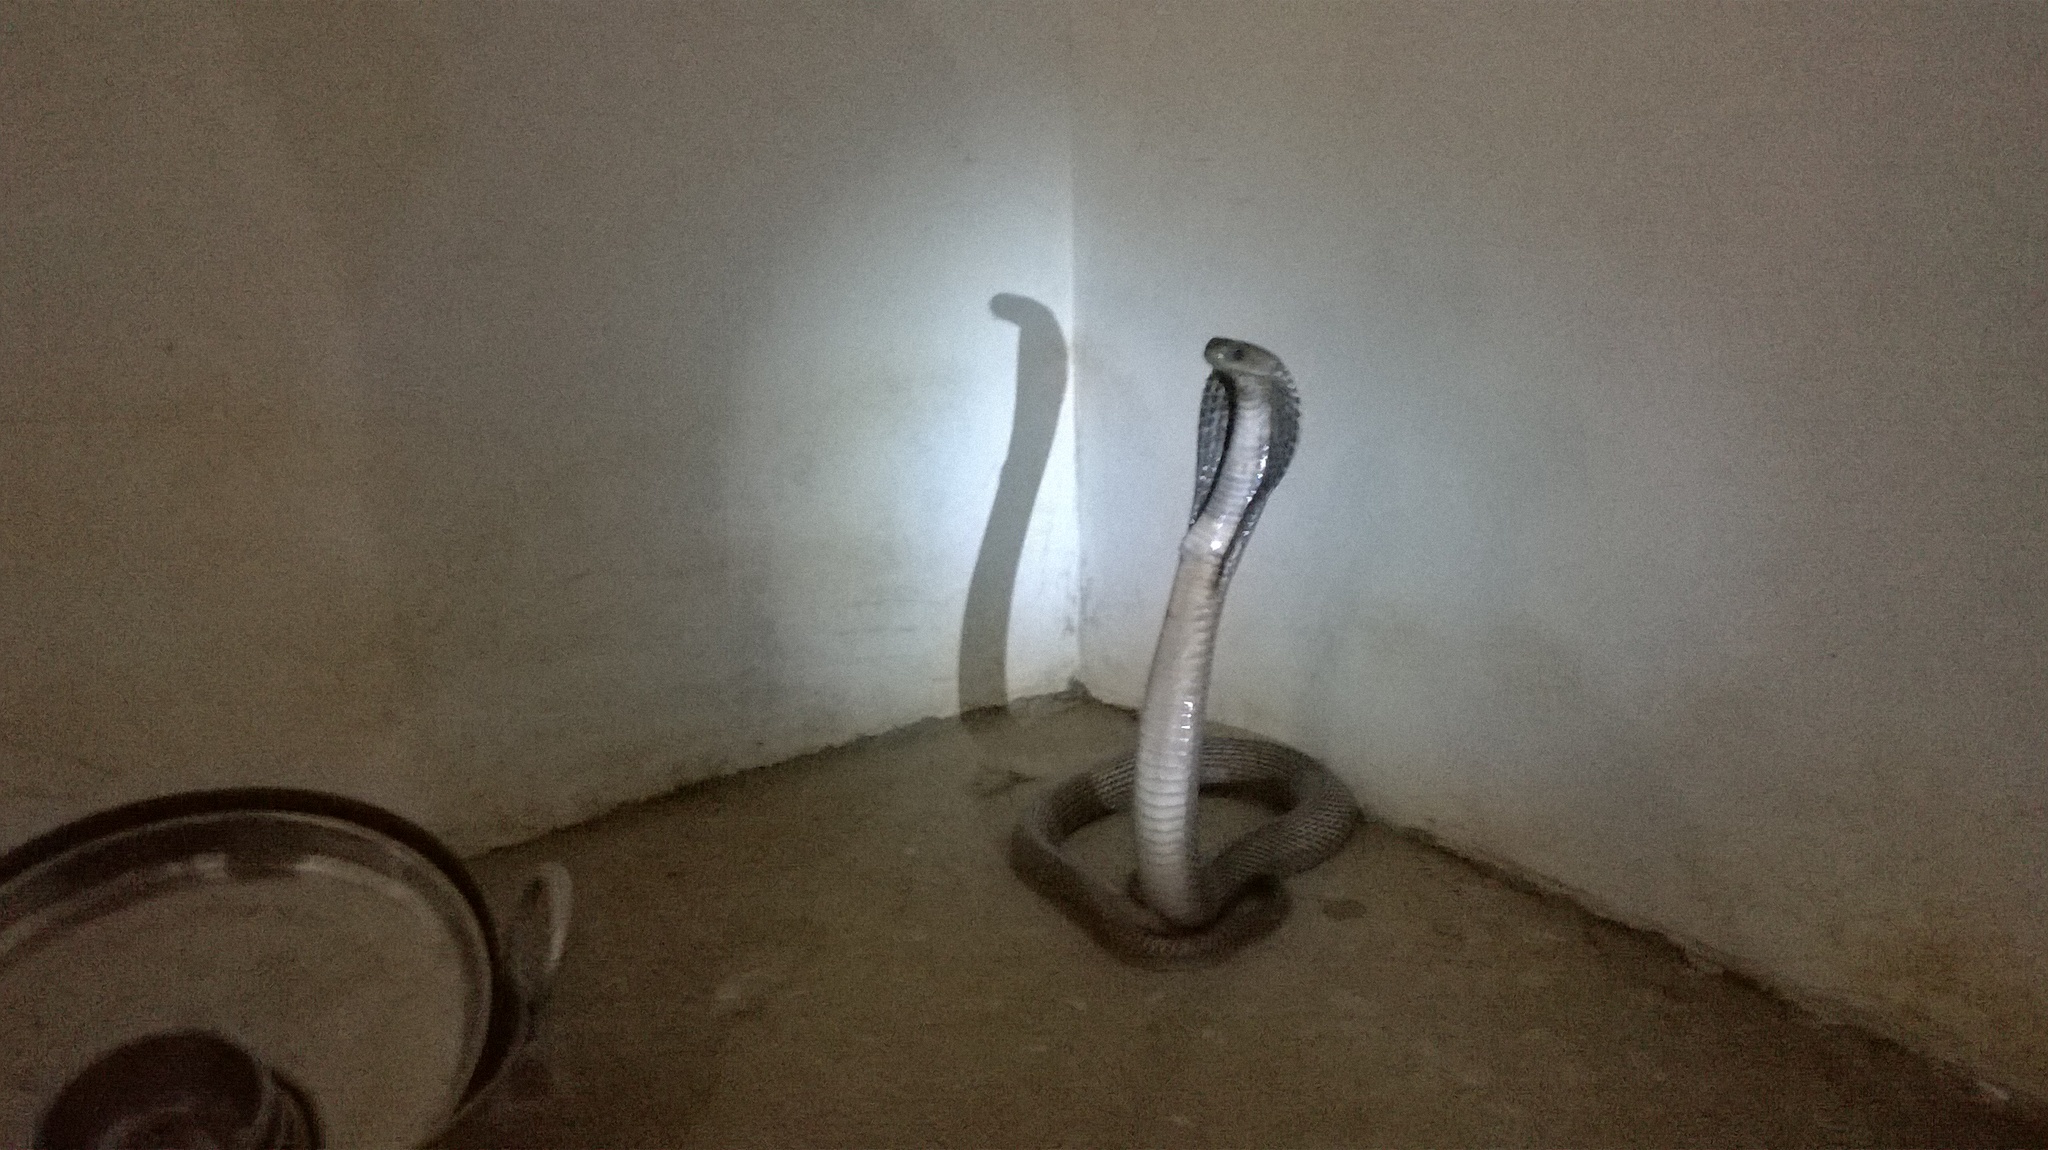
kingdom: Animalia
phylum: Chordata
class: Squamata
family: Elapidae
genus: Naja
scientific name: Naja naja
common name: Indian cobra
